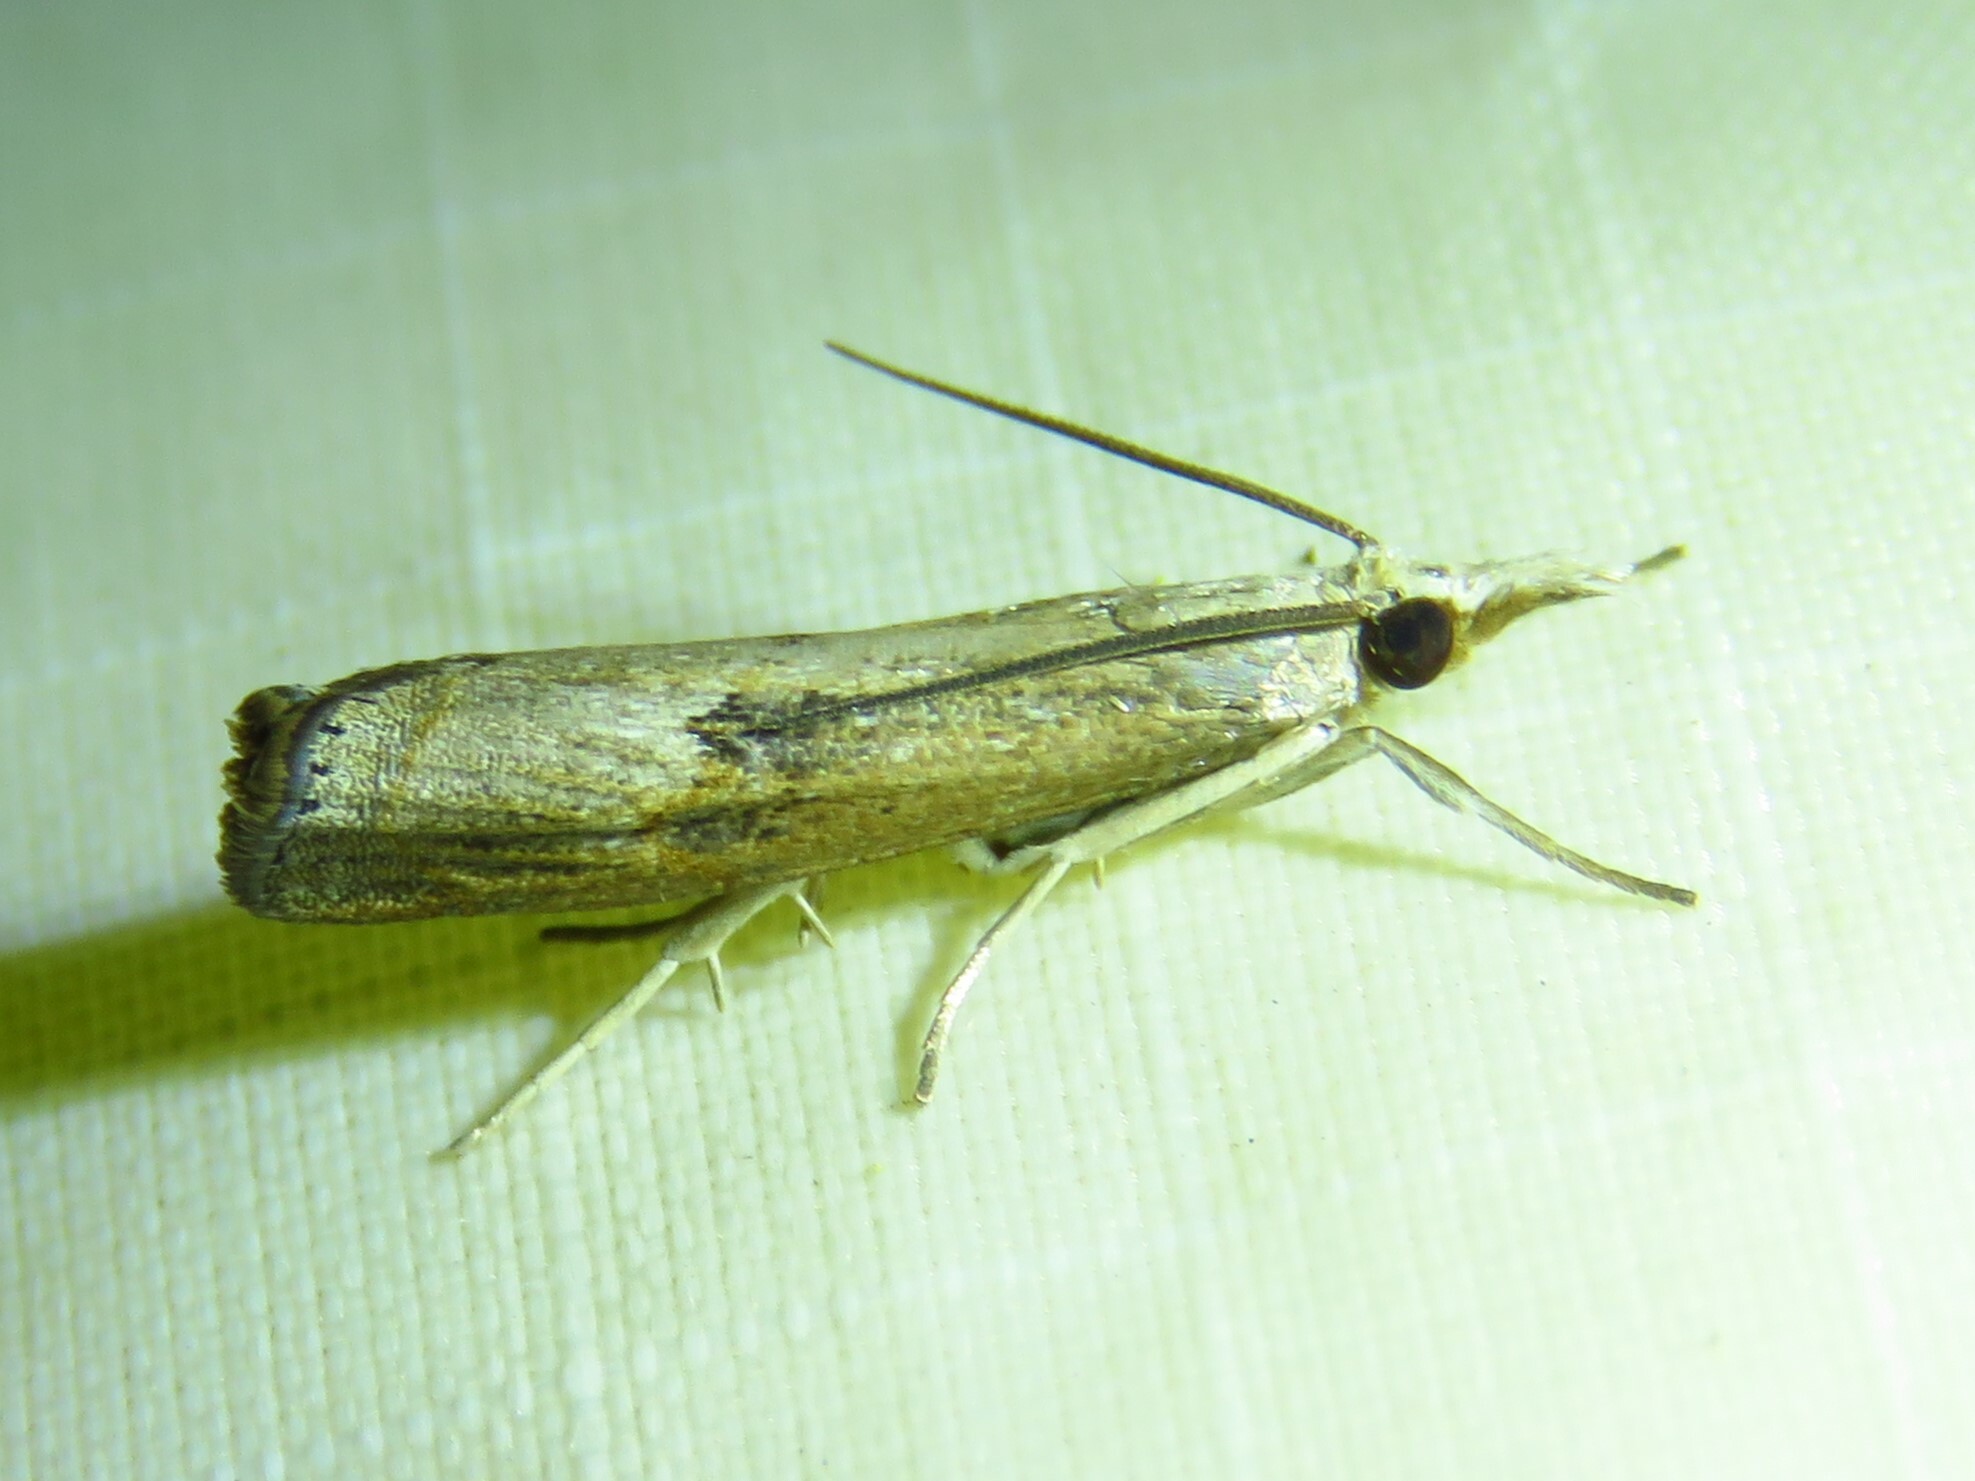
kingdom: Animalia
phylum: Arthropoda
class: Insecta
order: Lepidoptera
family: Crambidae
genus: Parapediasia
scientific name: Parapediasia teterellus
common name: Bluegrass webworm moth
